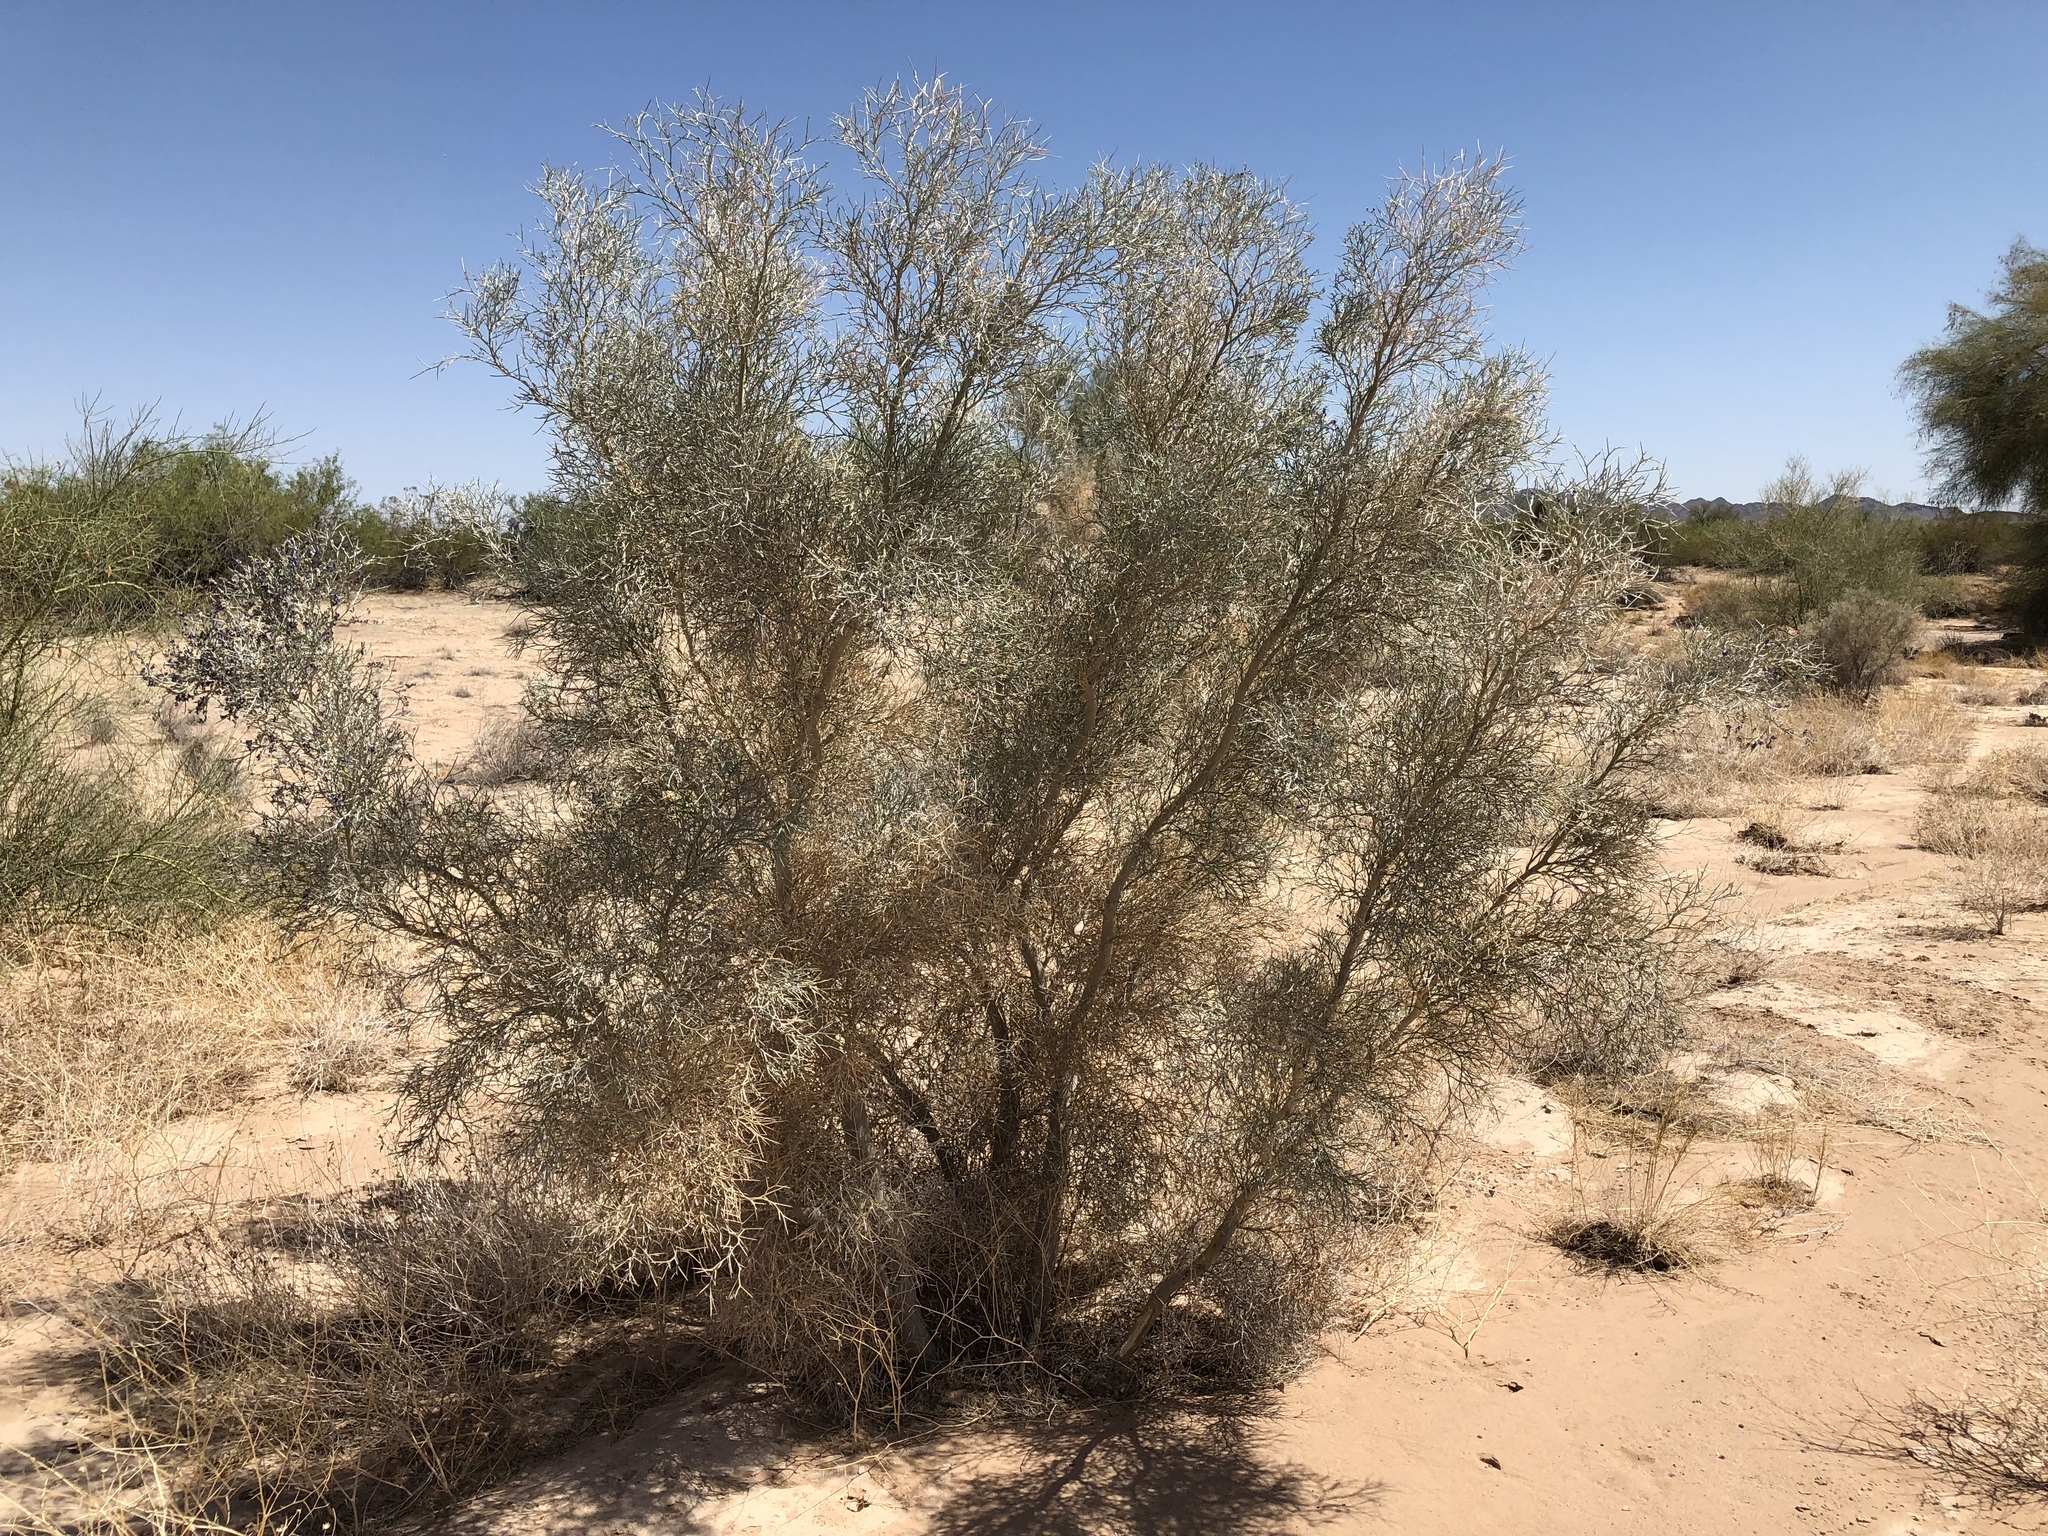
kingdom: Plantae
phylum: Tracheophyta
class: Magnoliopsida
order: Fabales
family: Fabaceae
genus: Psorothamnus
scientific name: Psorothamnus spinosus
